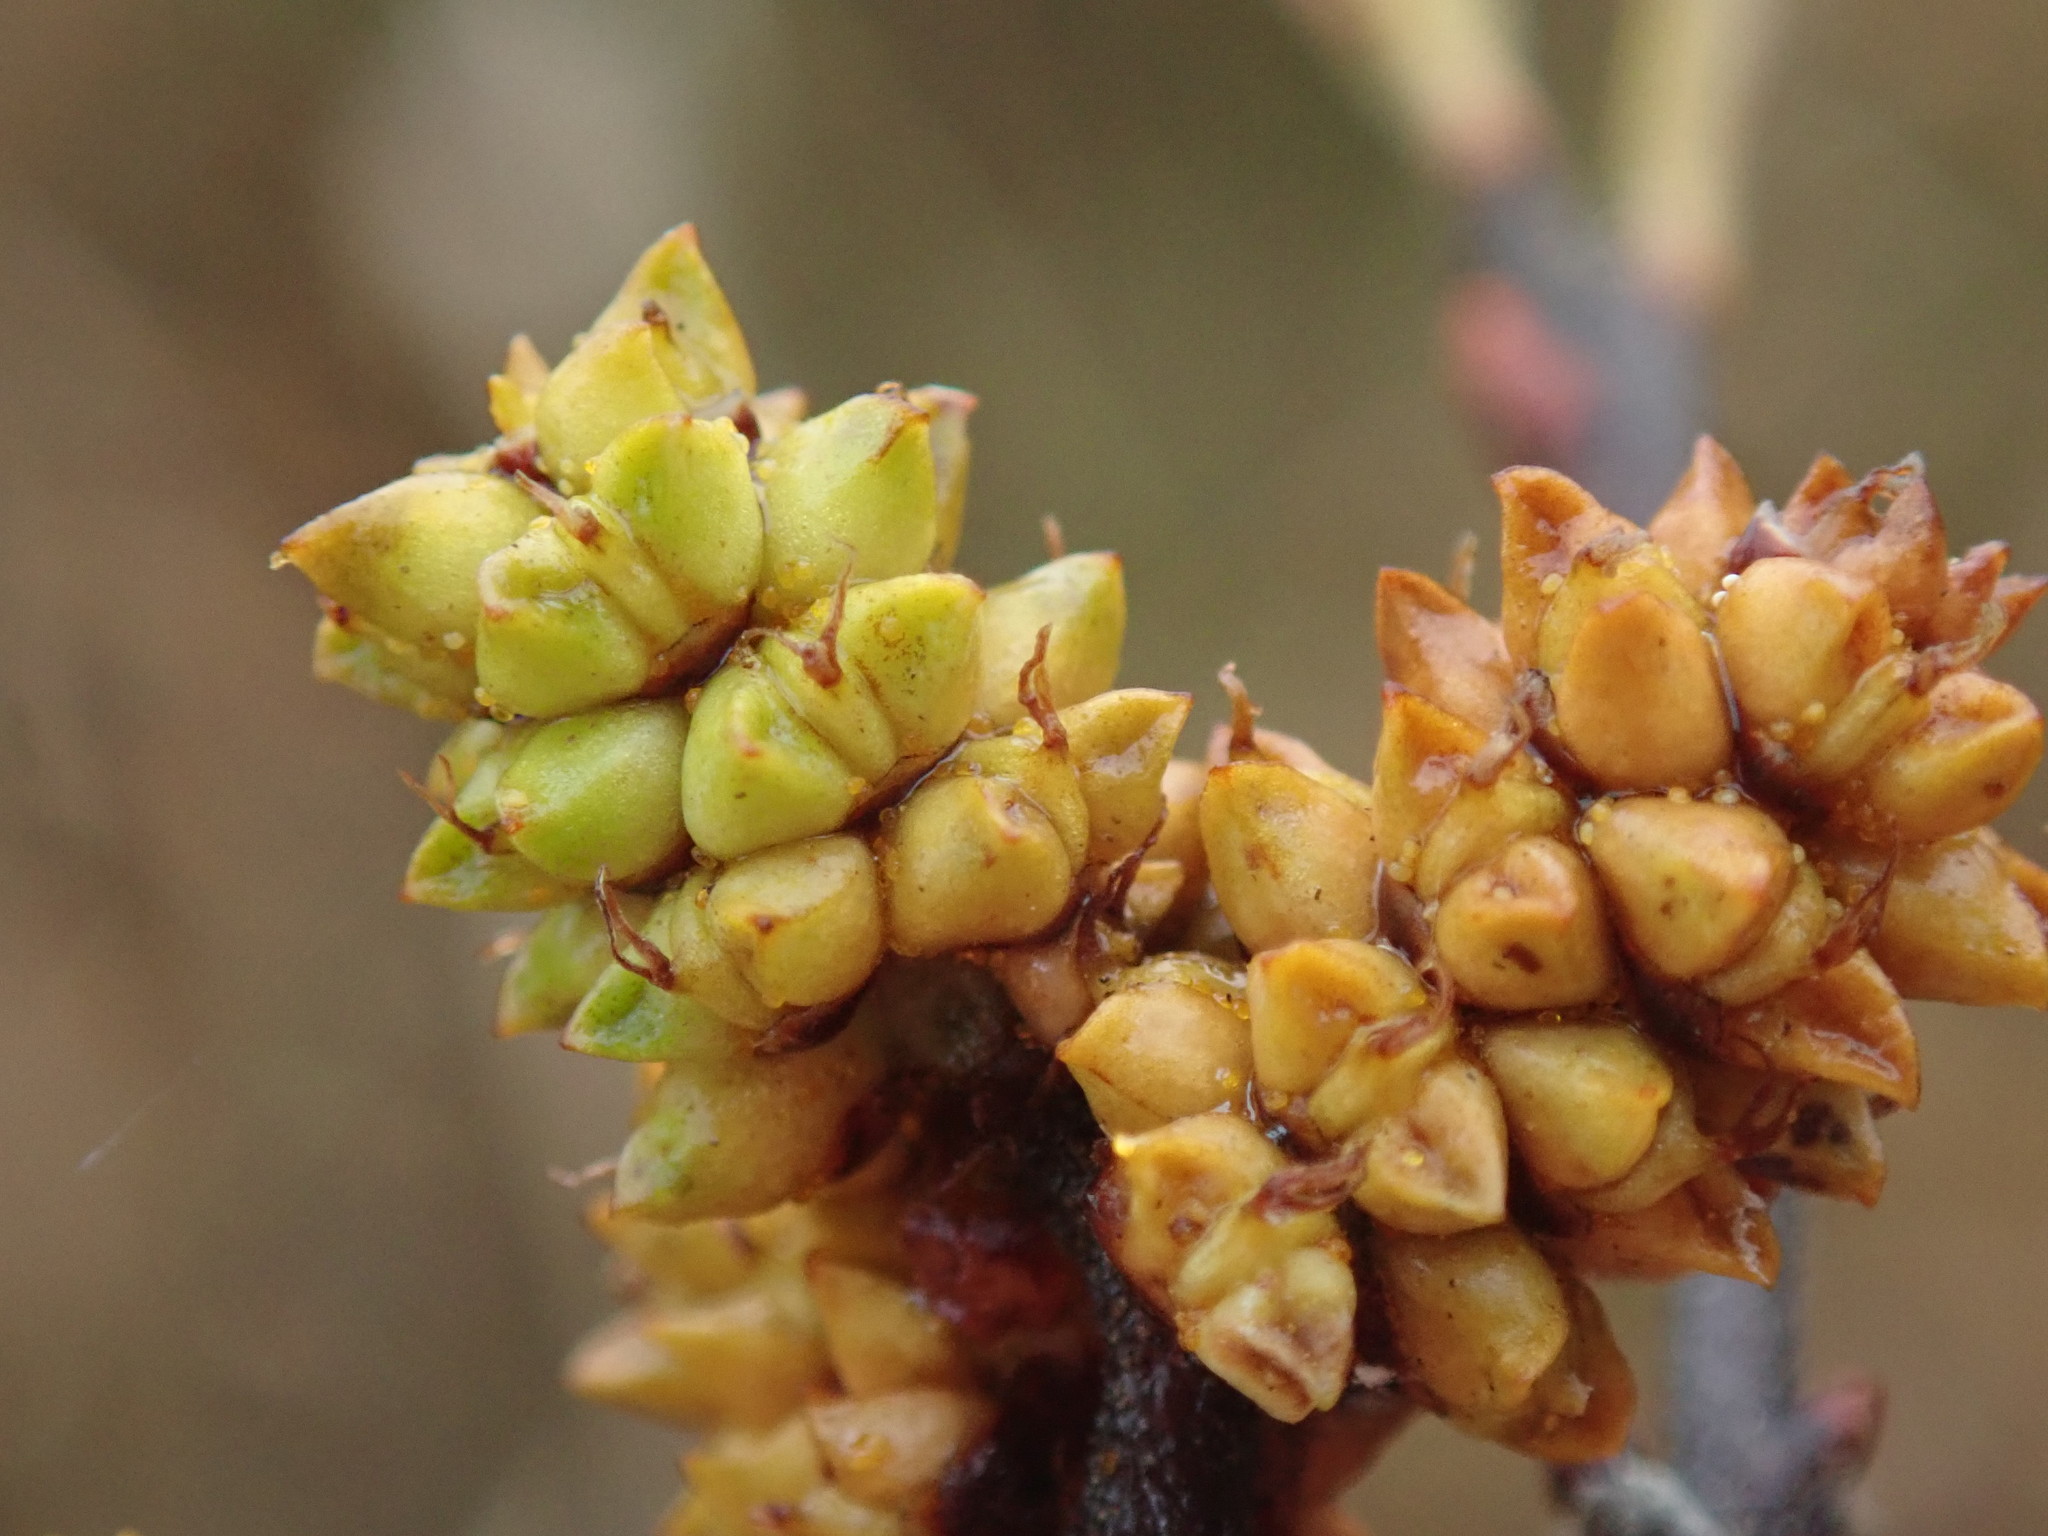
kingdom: Plantae
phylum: Tracheophyta
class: Magnoliopsida
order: Fagales
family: Myricaceae
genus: Myrica
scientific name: Myrica gale
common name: Sweet gale
